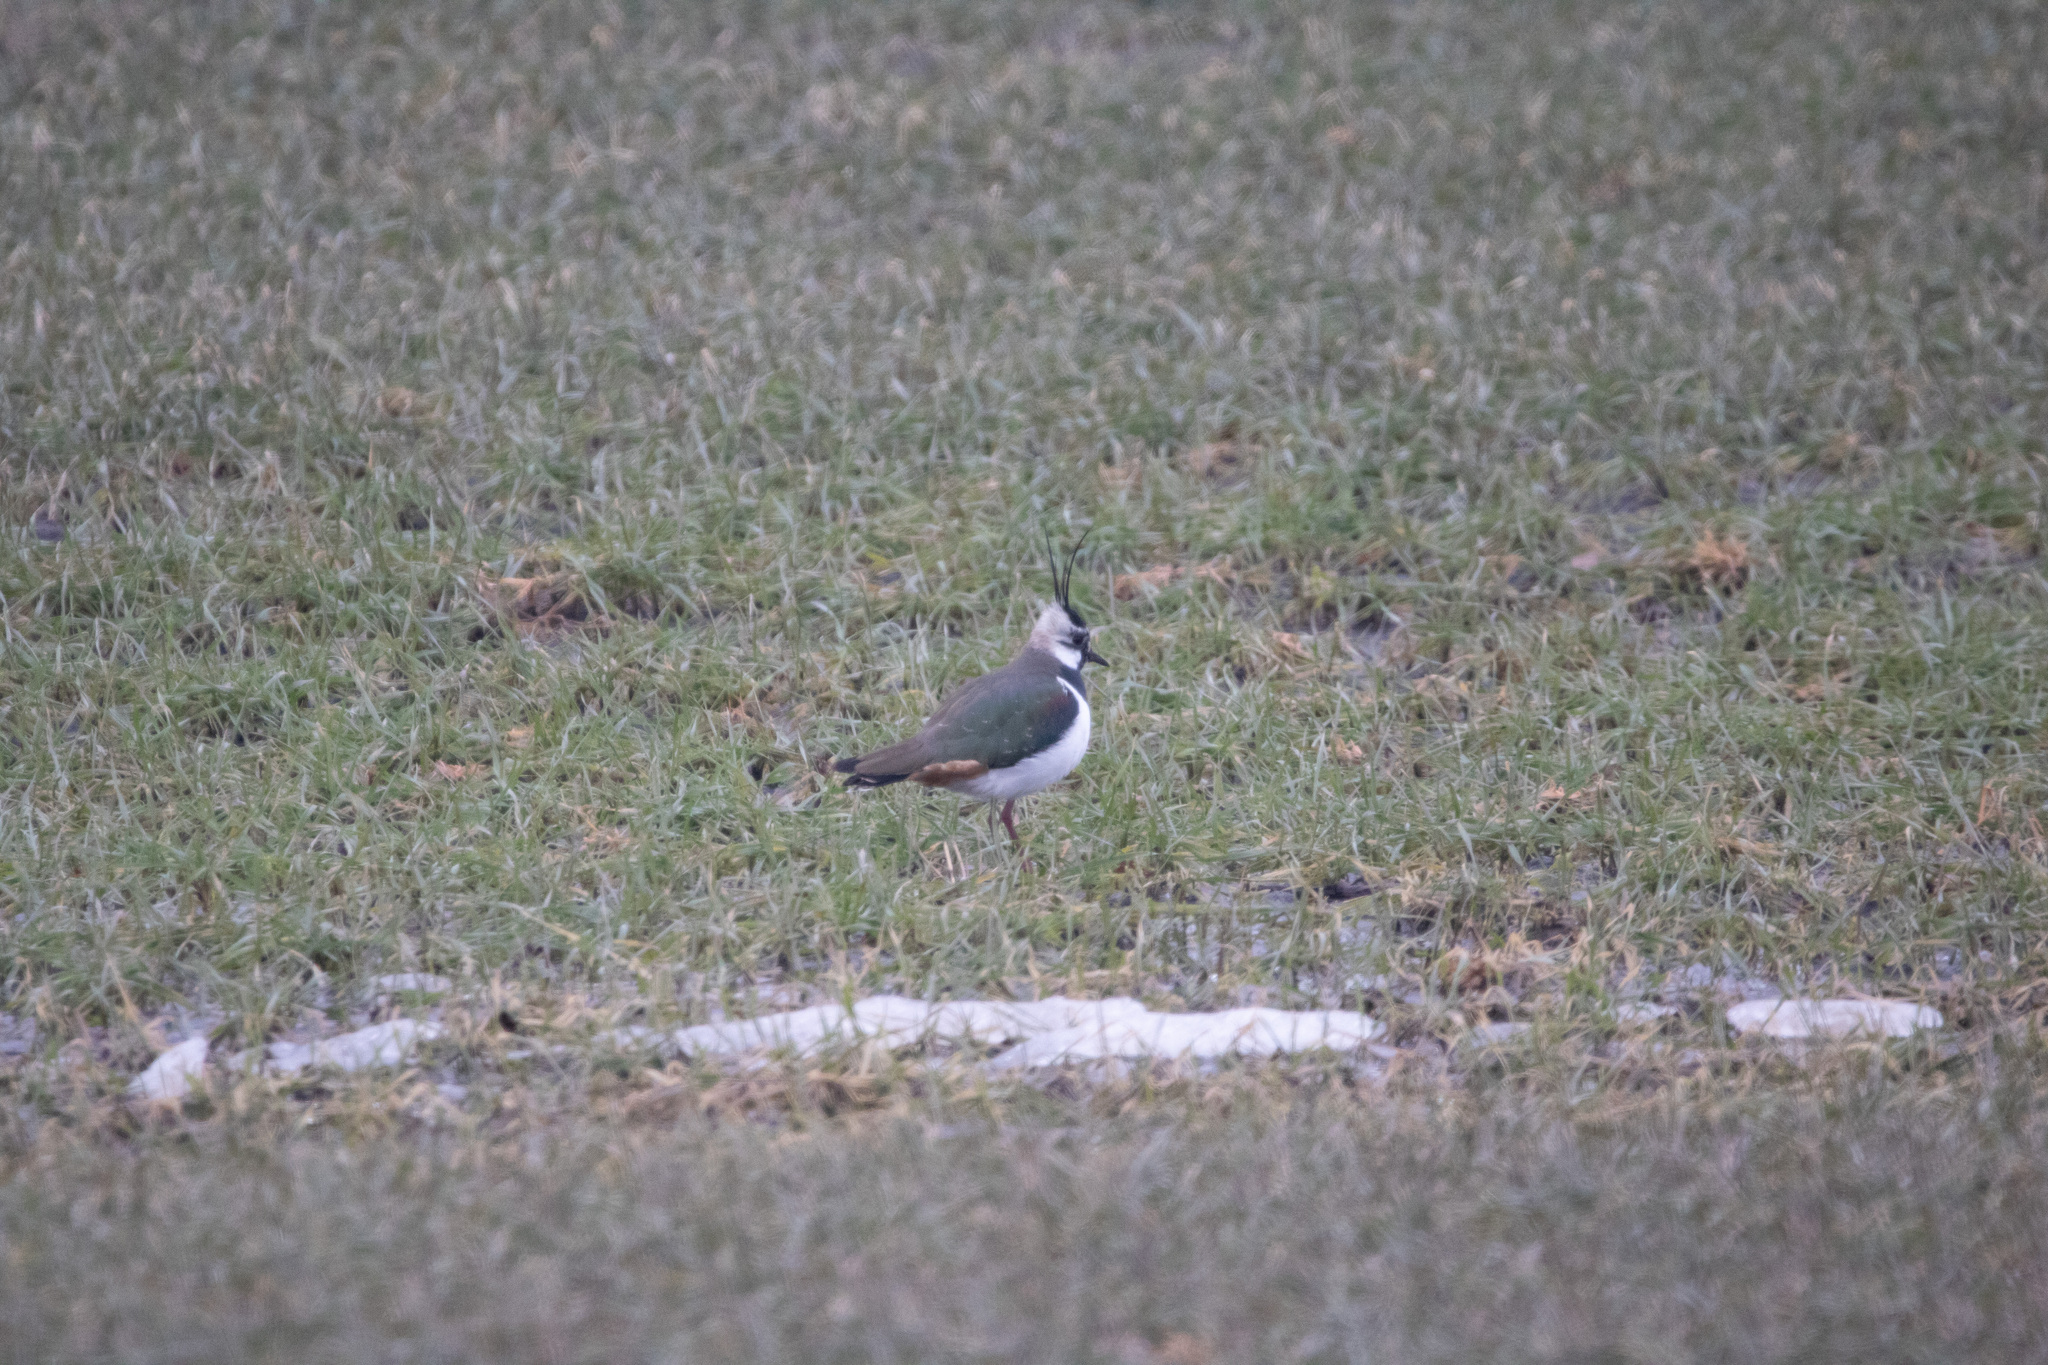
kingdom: Animalia
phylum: Chordata
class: Aves
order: Charadriiformes
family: Charadriidae
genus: Vanellus
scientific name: Vanellus vanellus
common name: Northern lapwing
